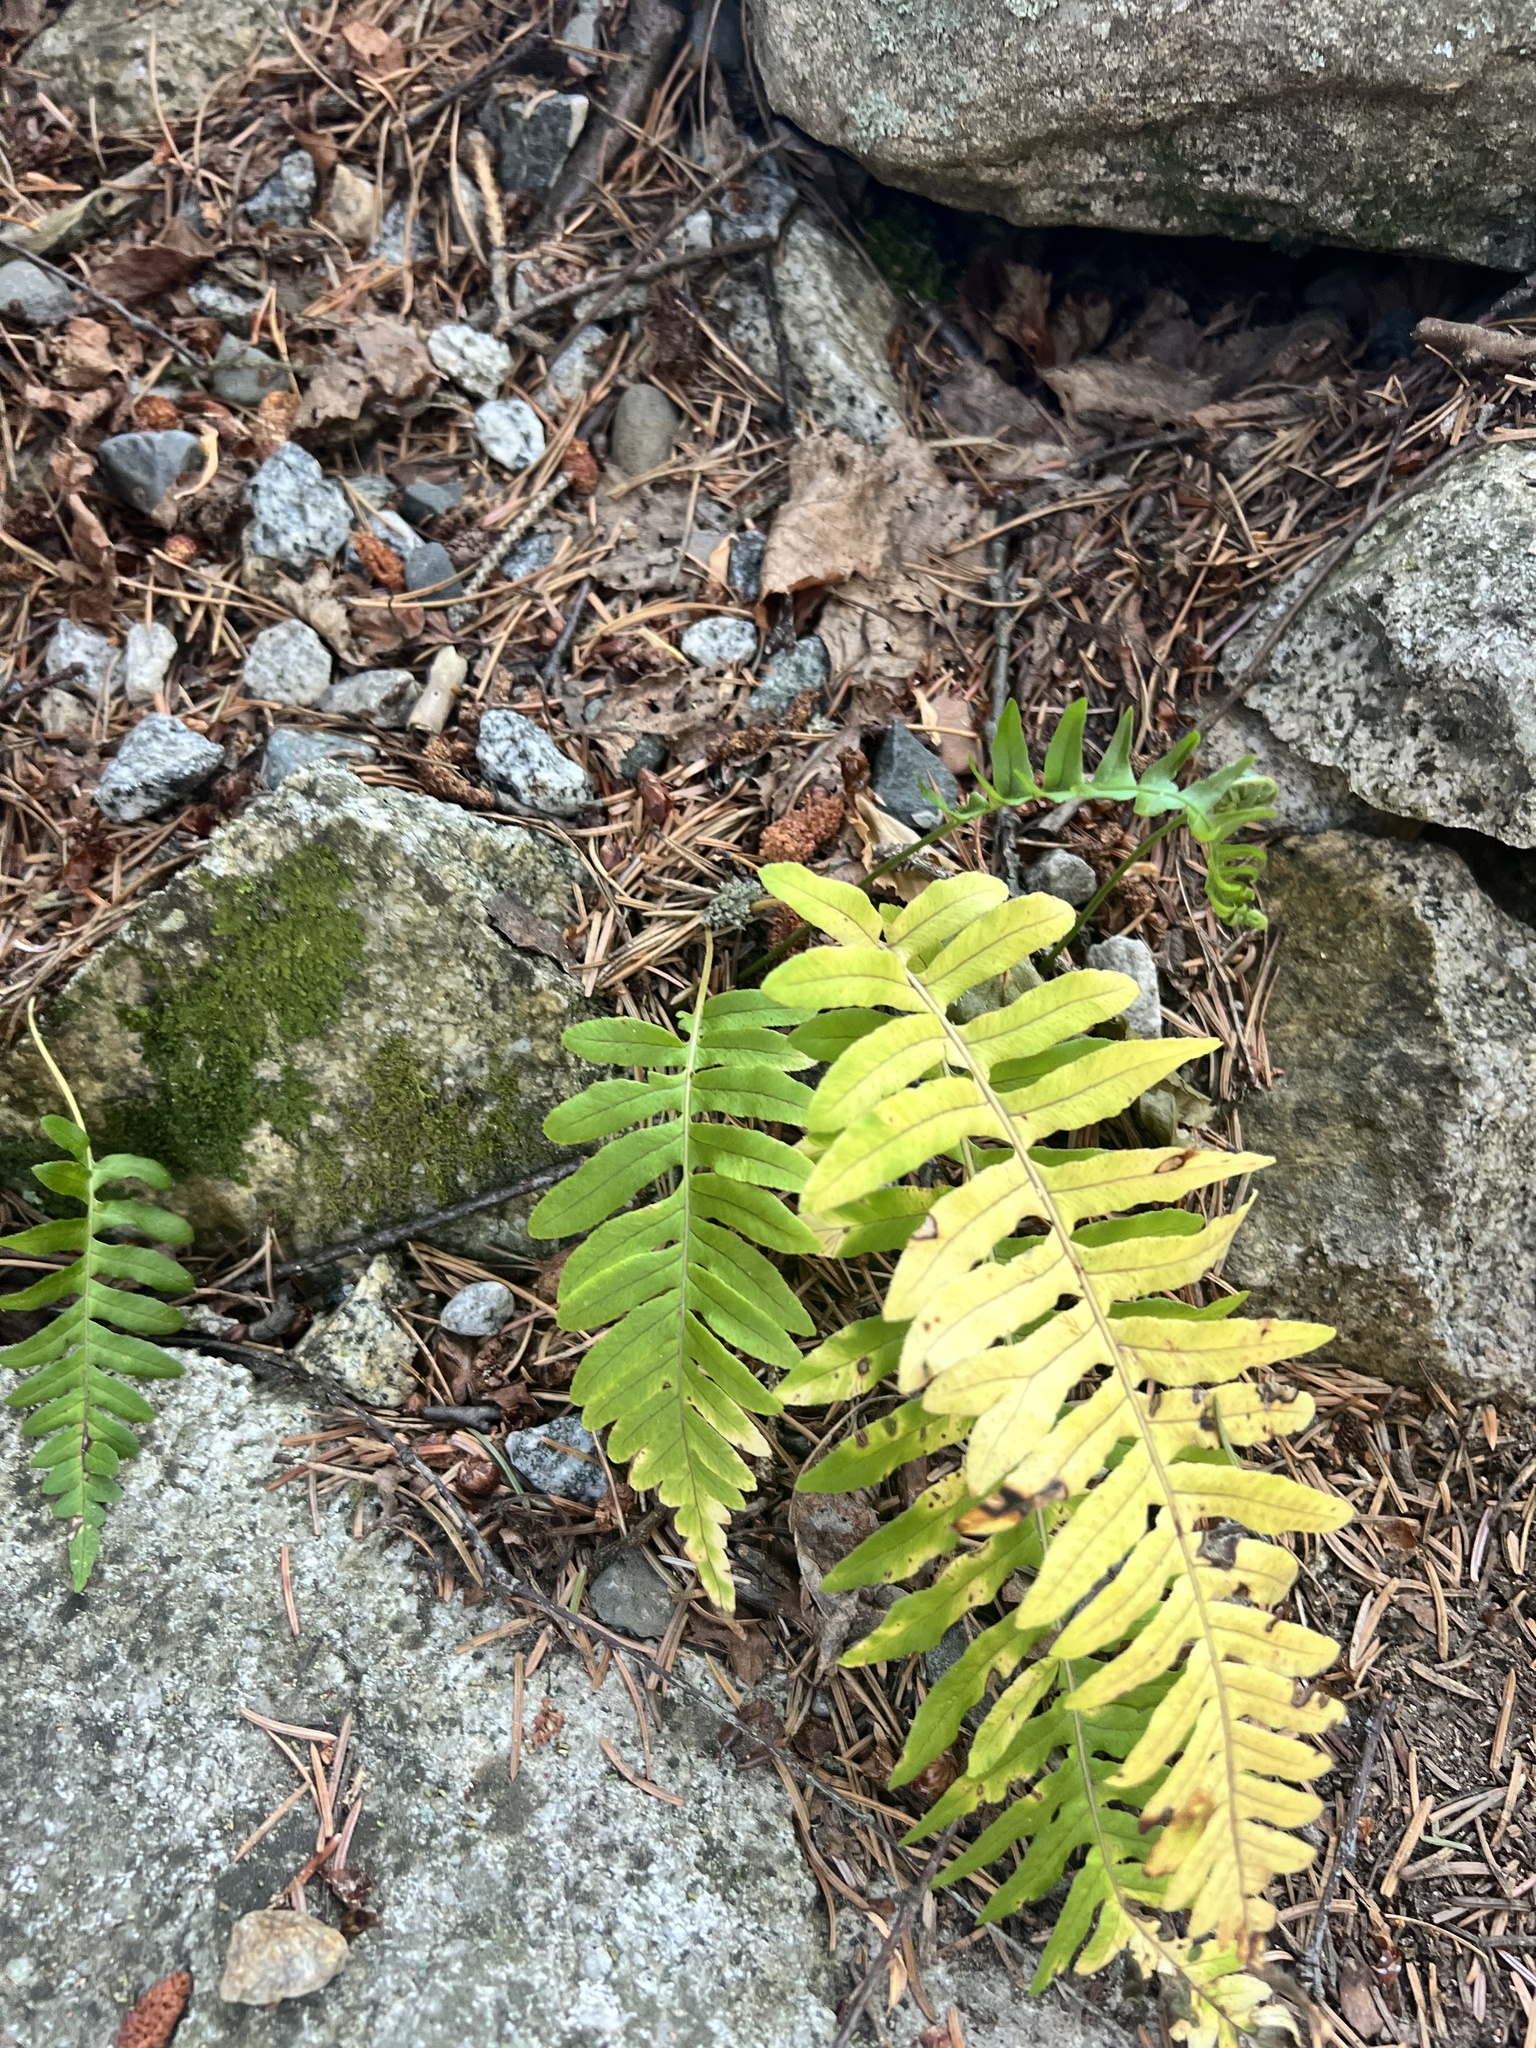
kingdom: Plantae
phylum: Tracheophyta
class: Polypodiopsida
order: Polypodiales
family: Polypodiaceae
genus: Polypodium
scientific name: Polypodium glycyrrhiza
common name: Licorice fern
